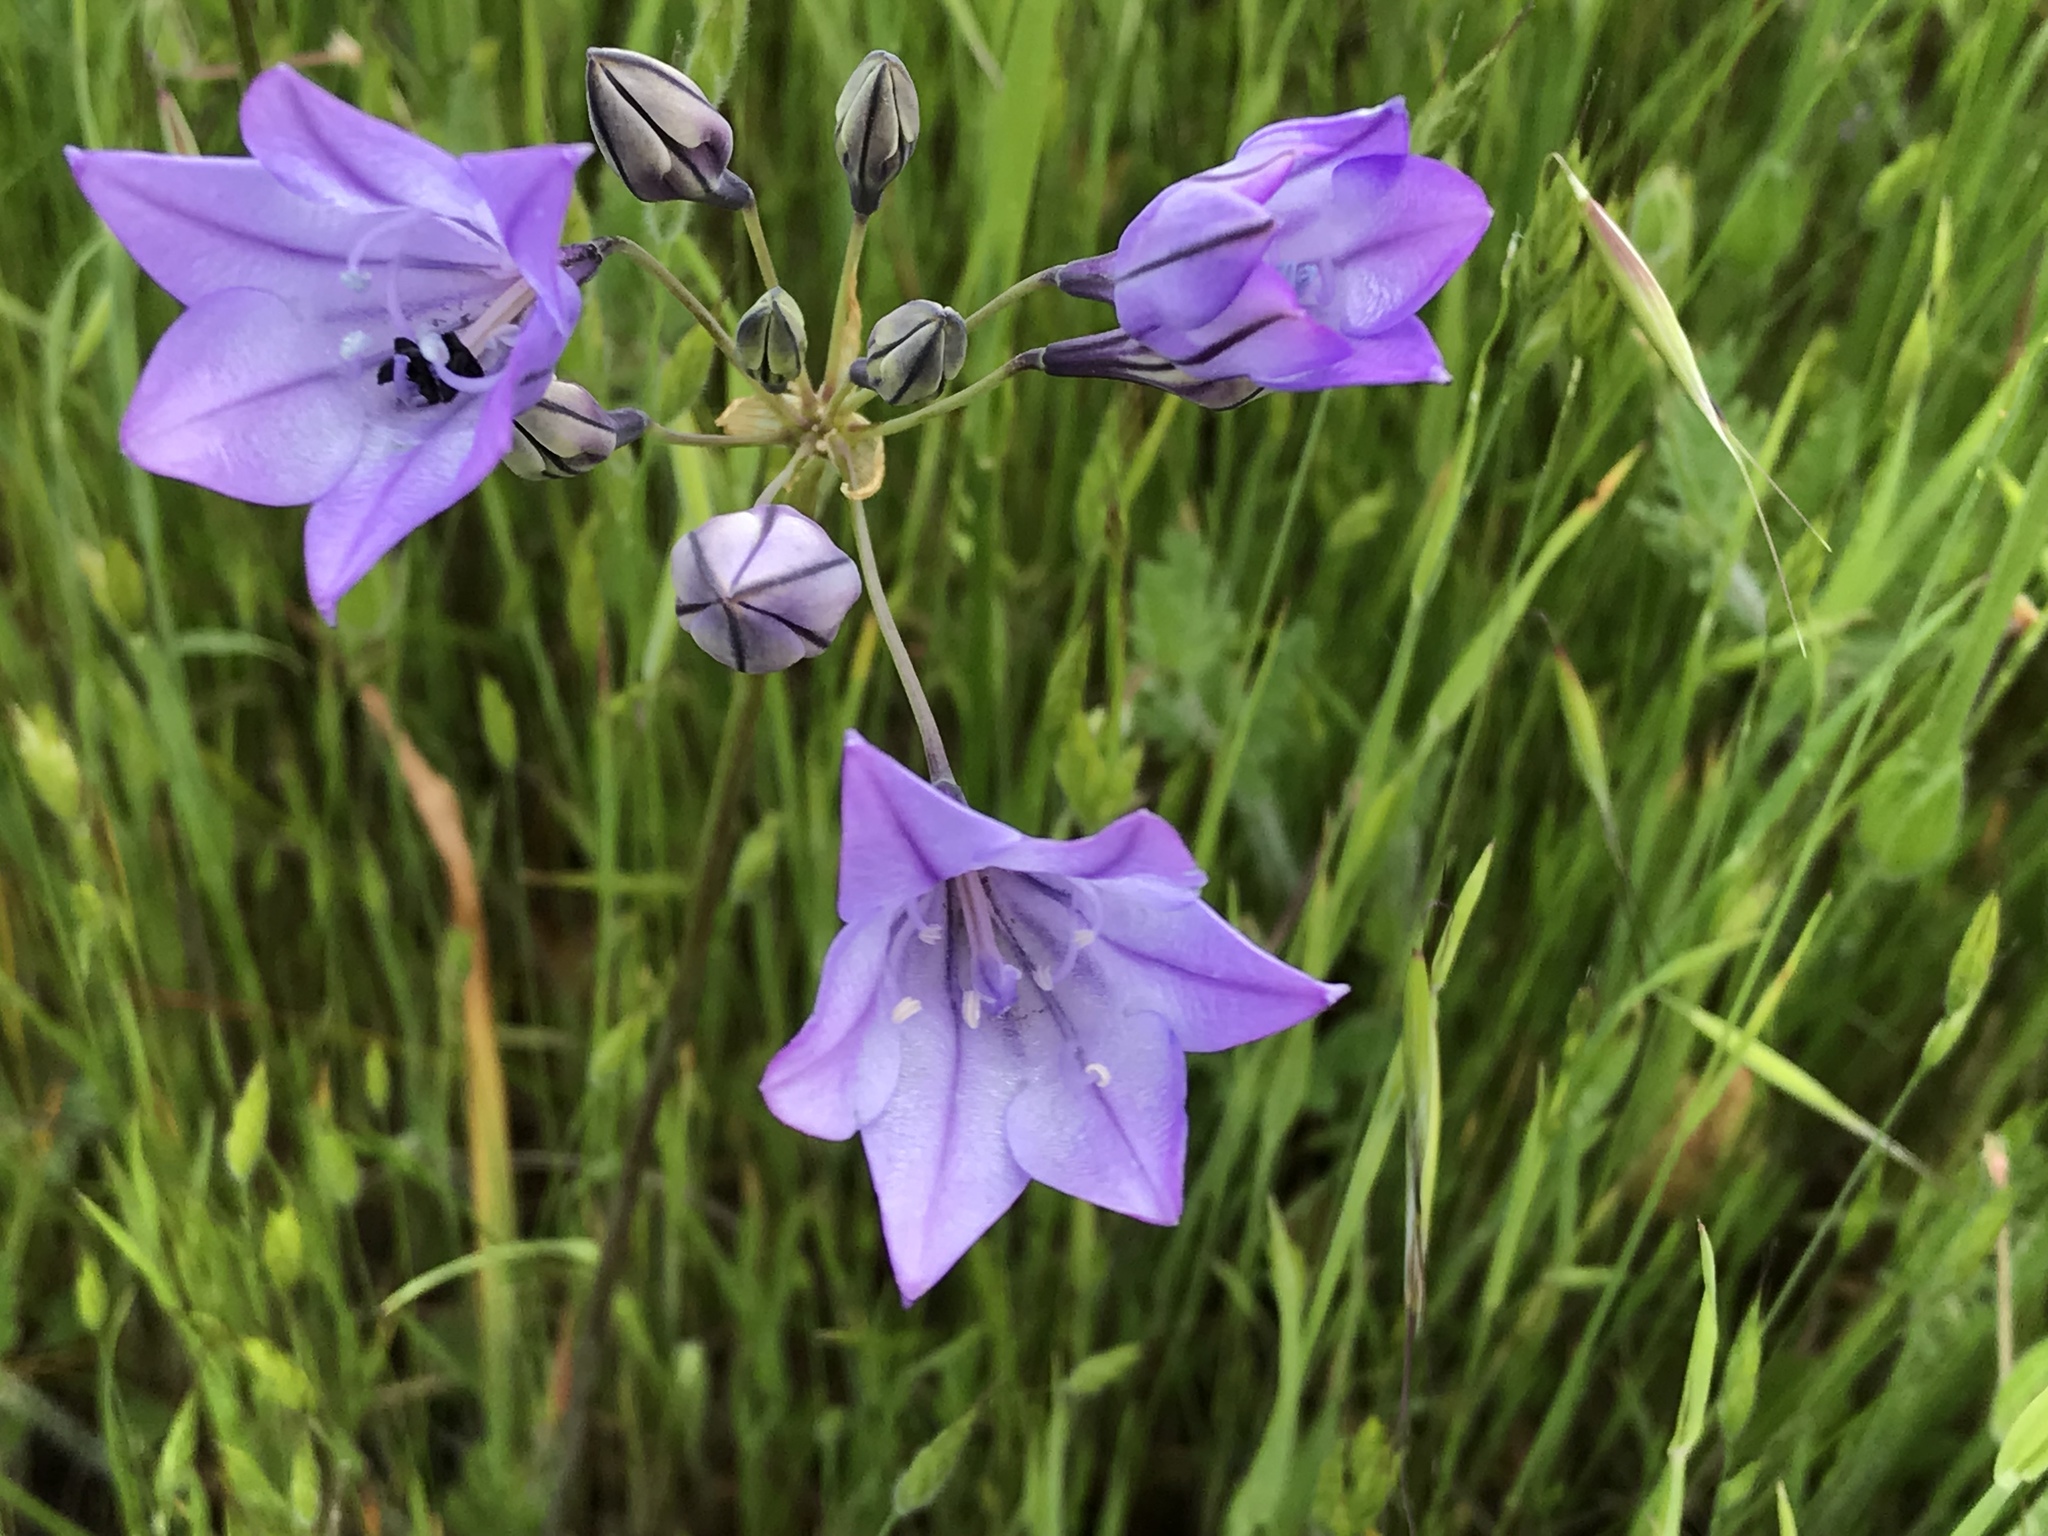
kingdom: Plantae
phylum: Tracheophyta
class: Liliopsida
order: Asparagales
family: Asparagaceae
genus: Triteleia
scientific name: Triteleia laxa
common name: Triplet-lily
